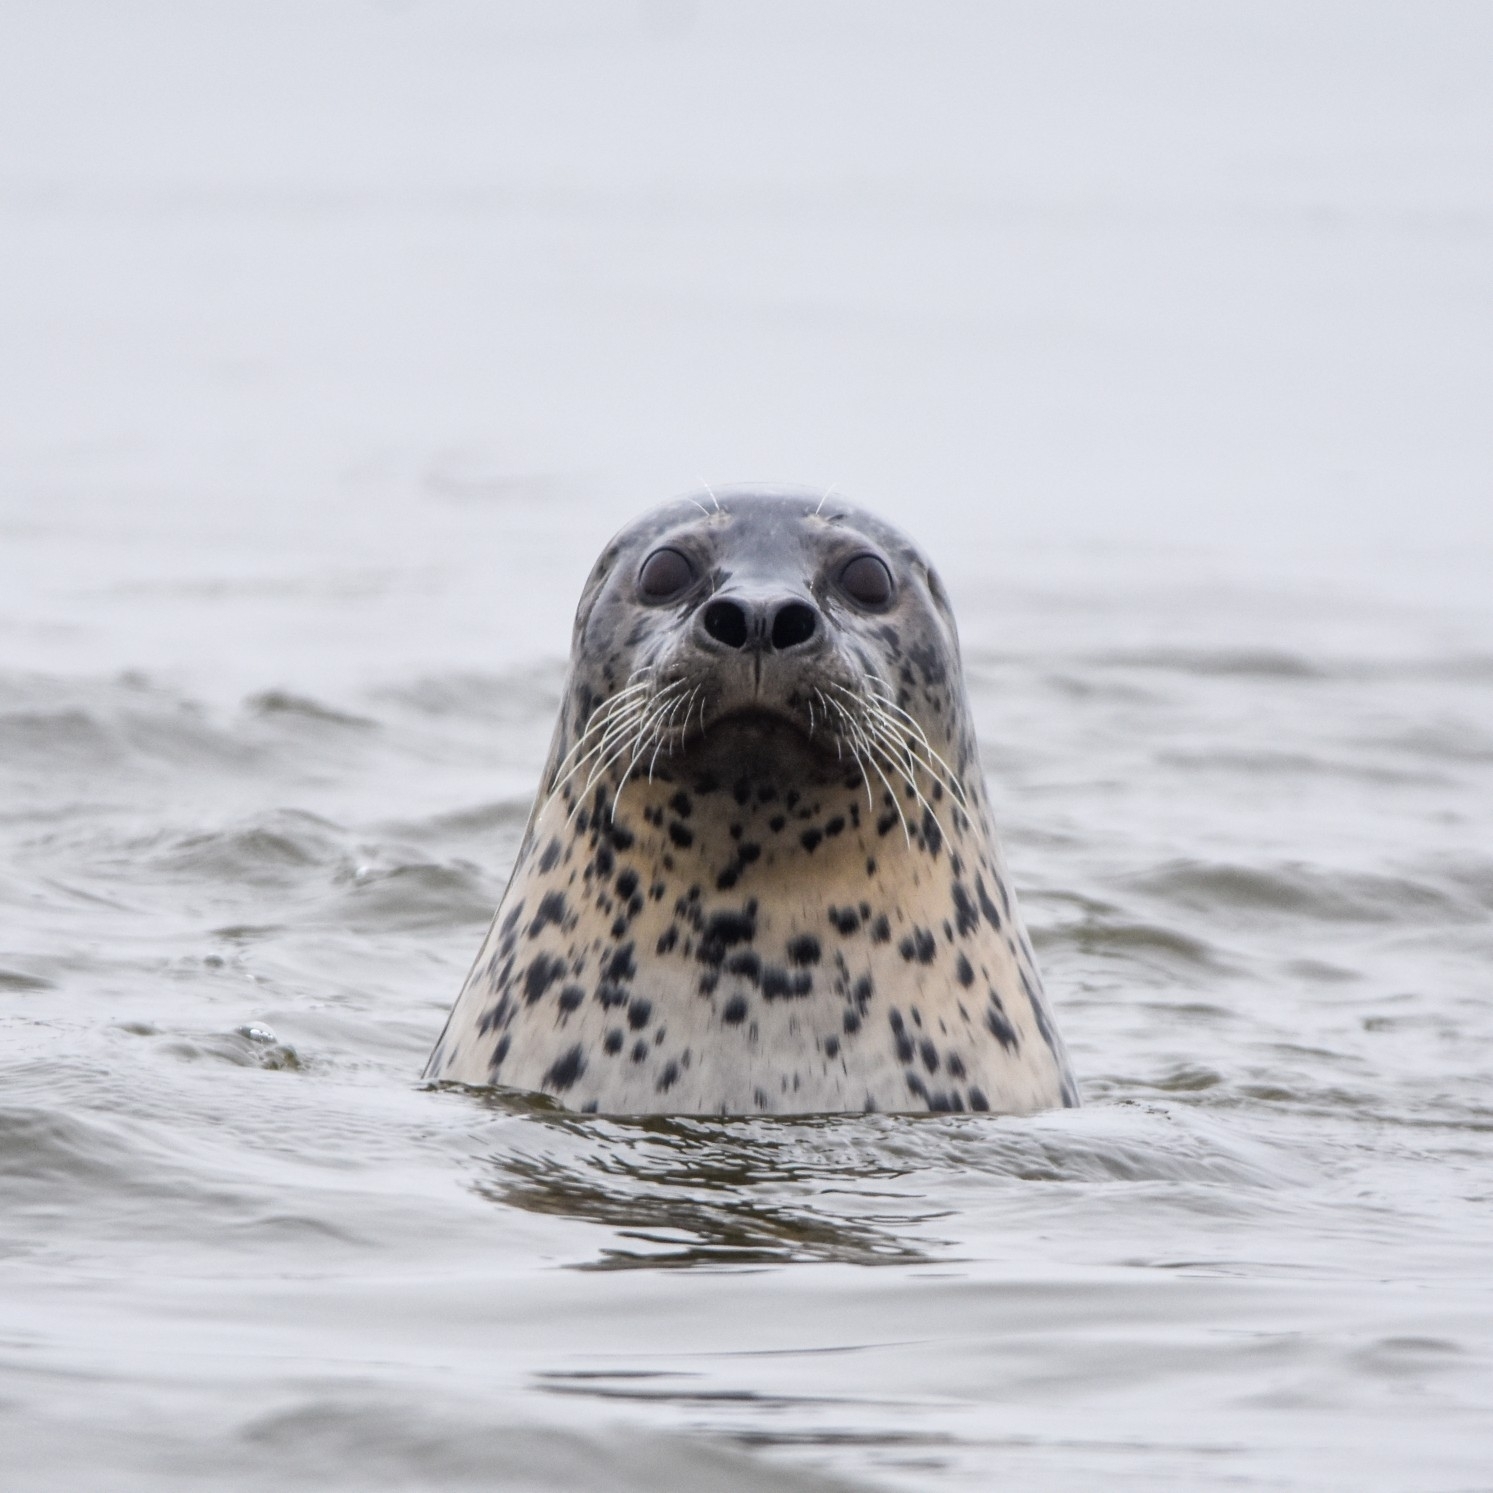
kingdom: Animalia
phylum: Chordata
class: Mammalia
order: Carnivora
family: Phocidae
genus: Phoca
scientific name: Phoca largha
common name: Spotted seal
